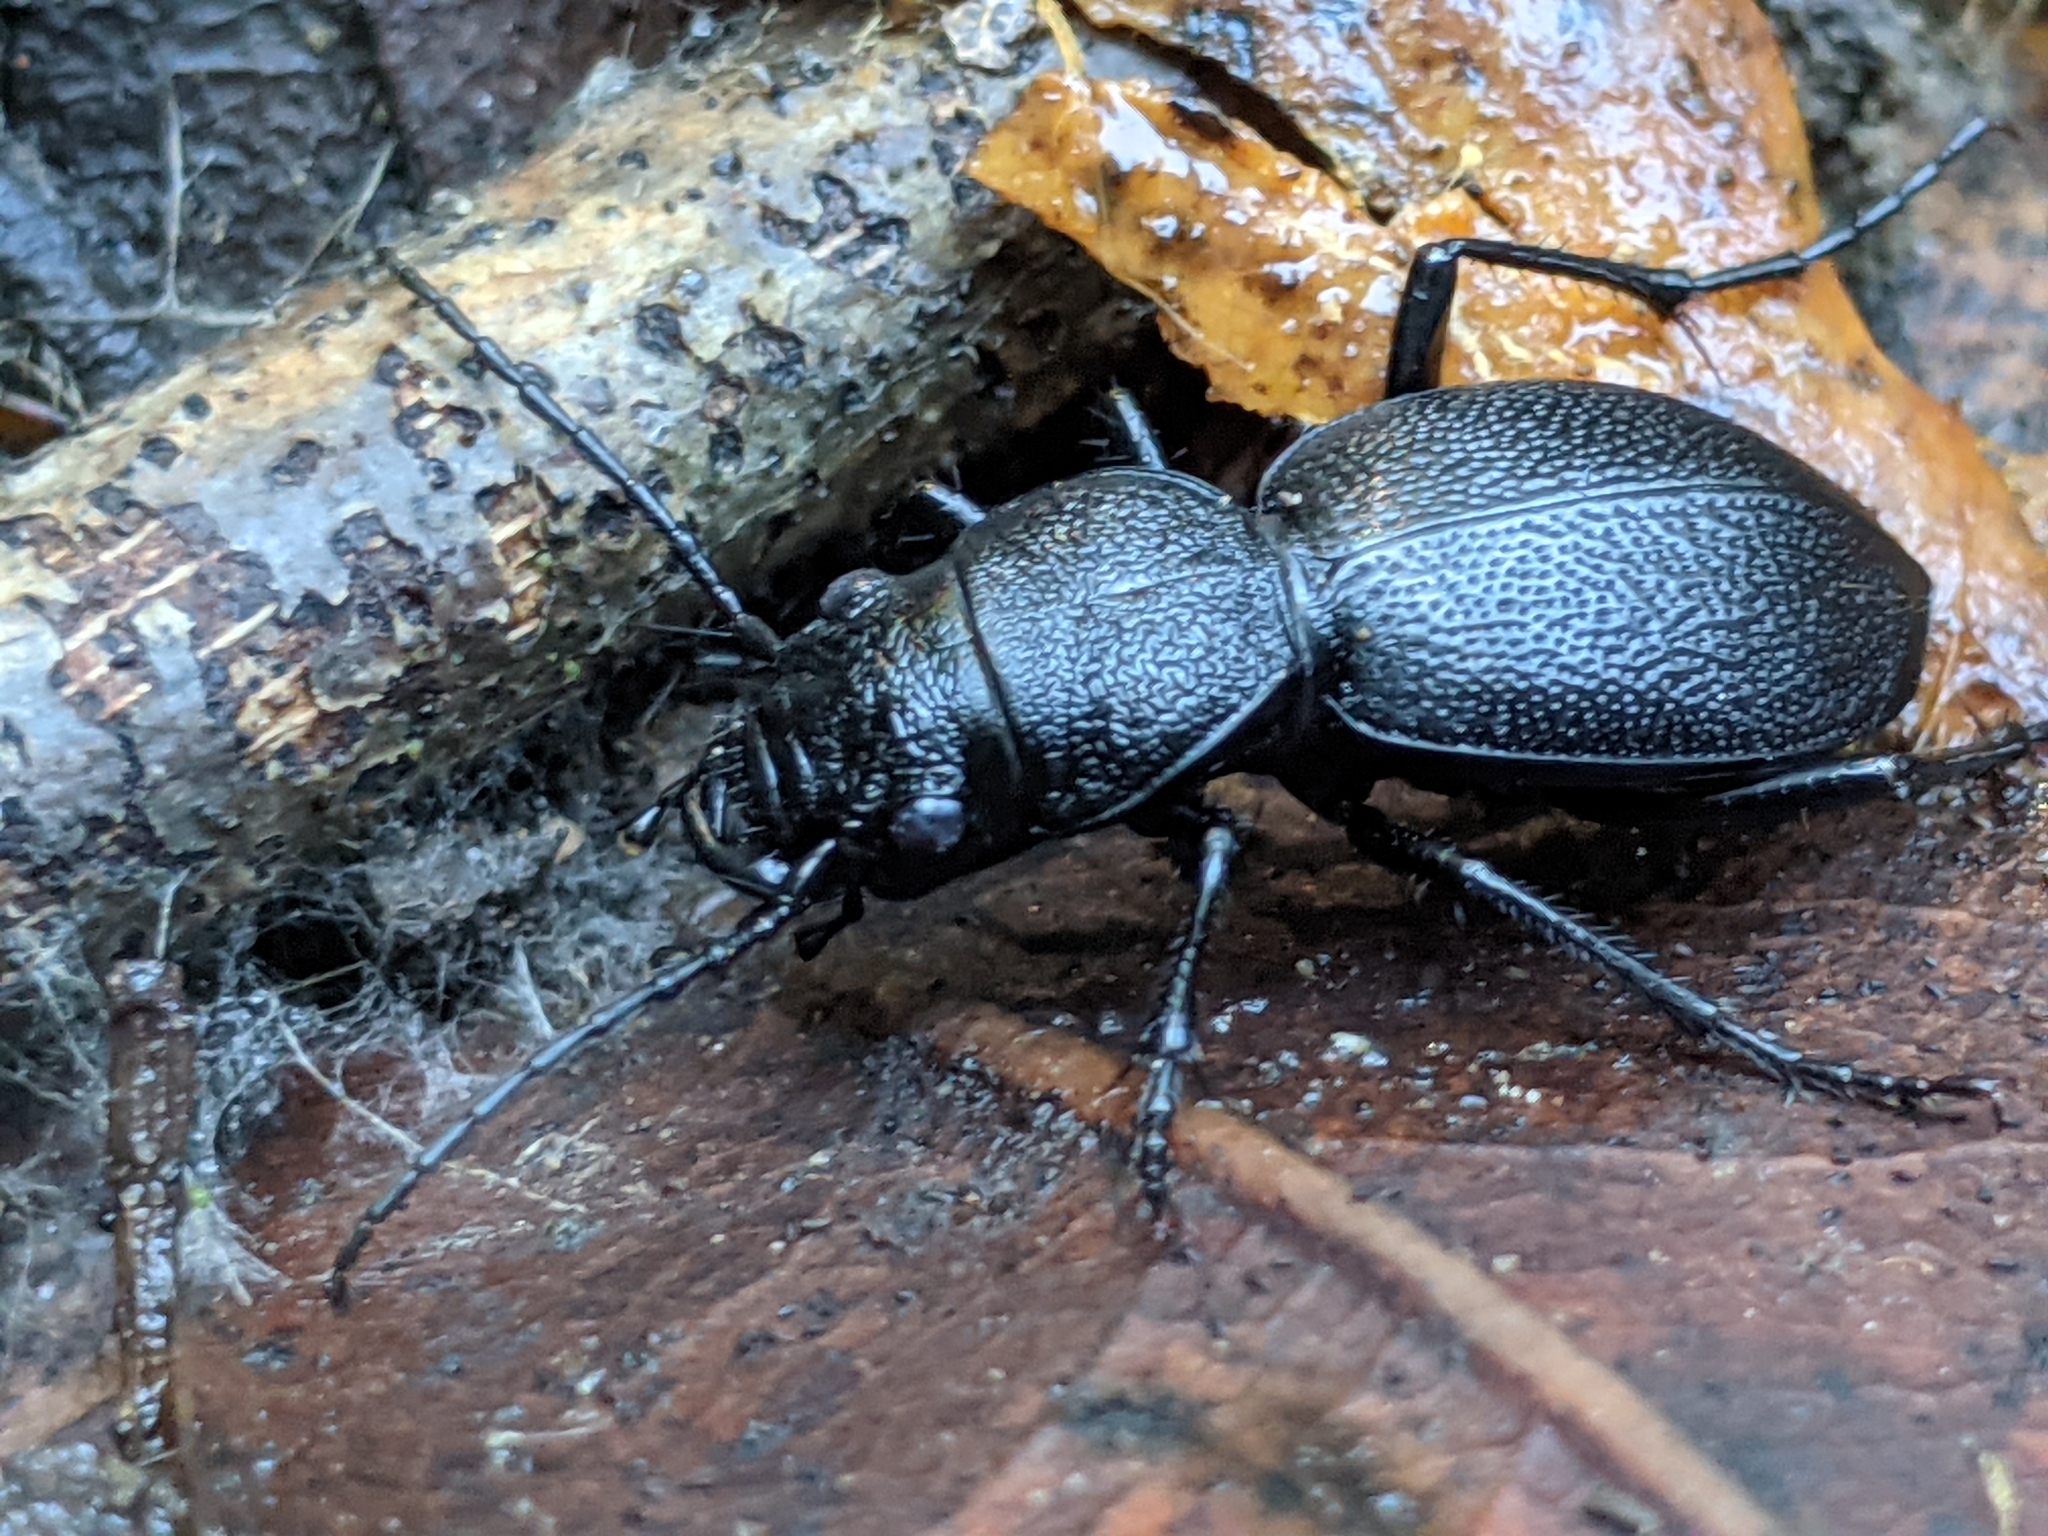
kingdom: Animalia
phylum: Arthropoda
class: Insecta
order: Coleoptera
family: Carabidae
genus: Omus
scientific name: Omus californicus
